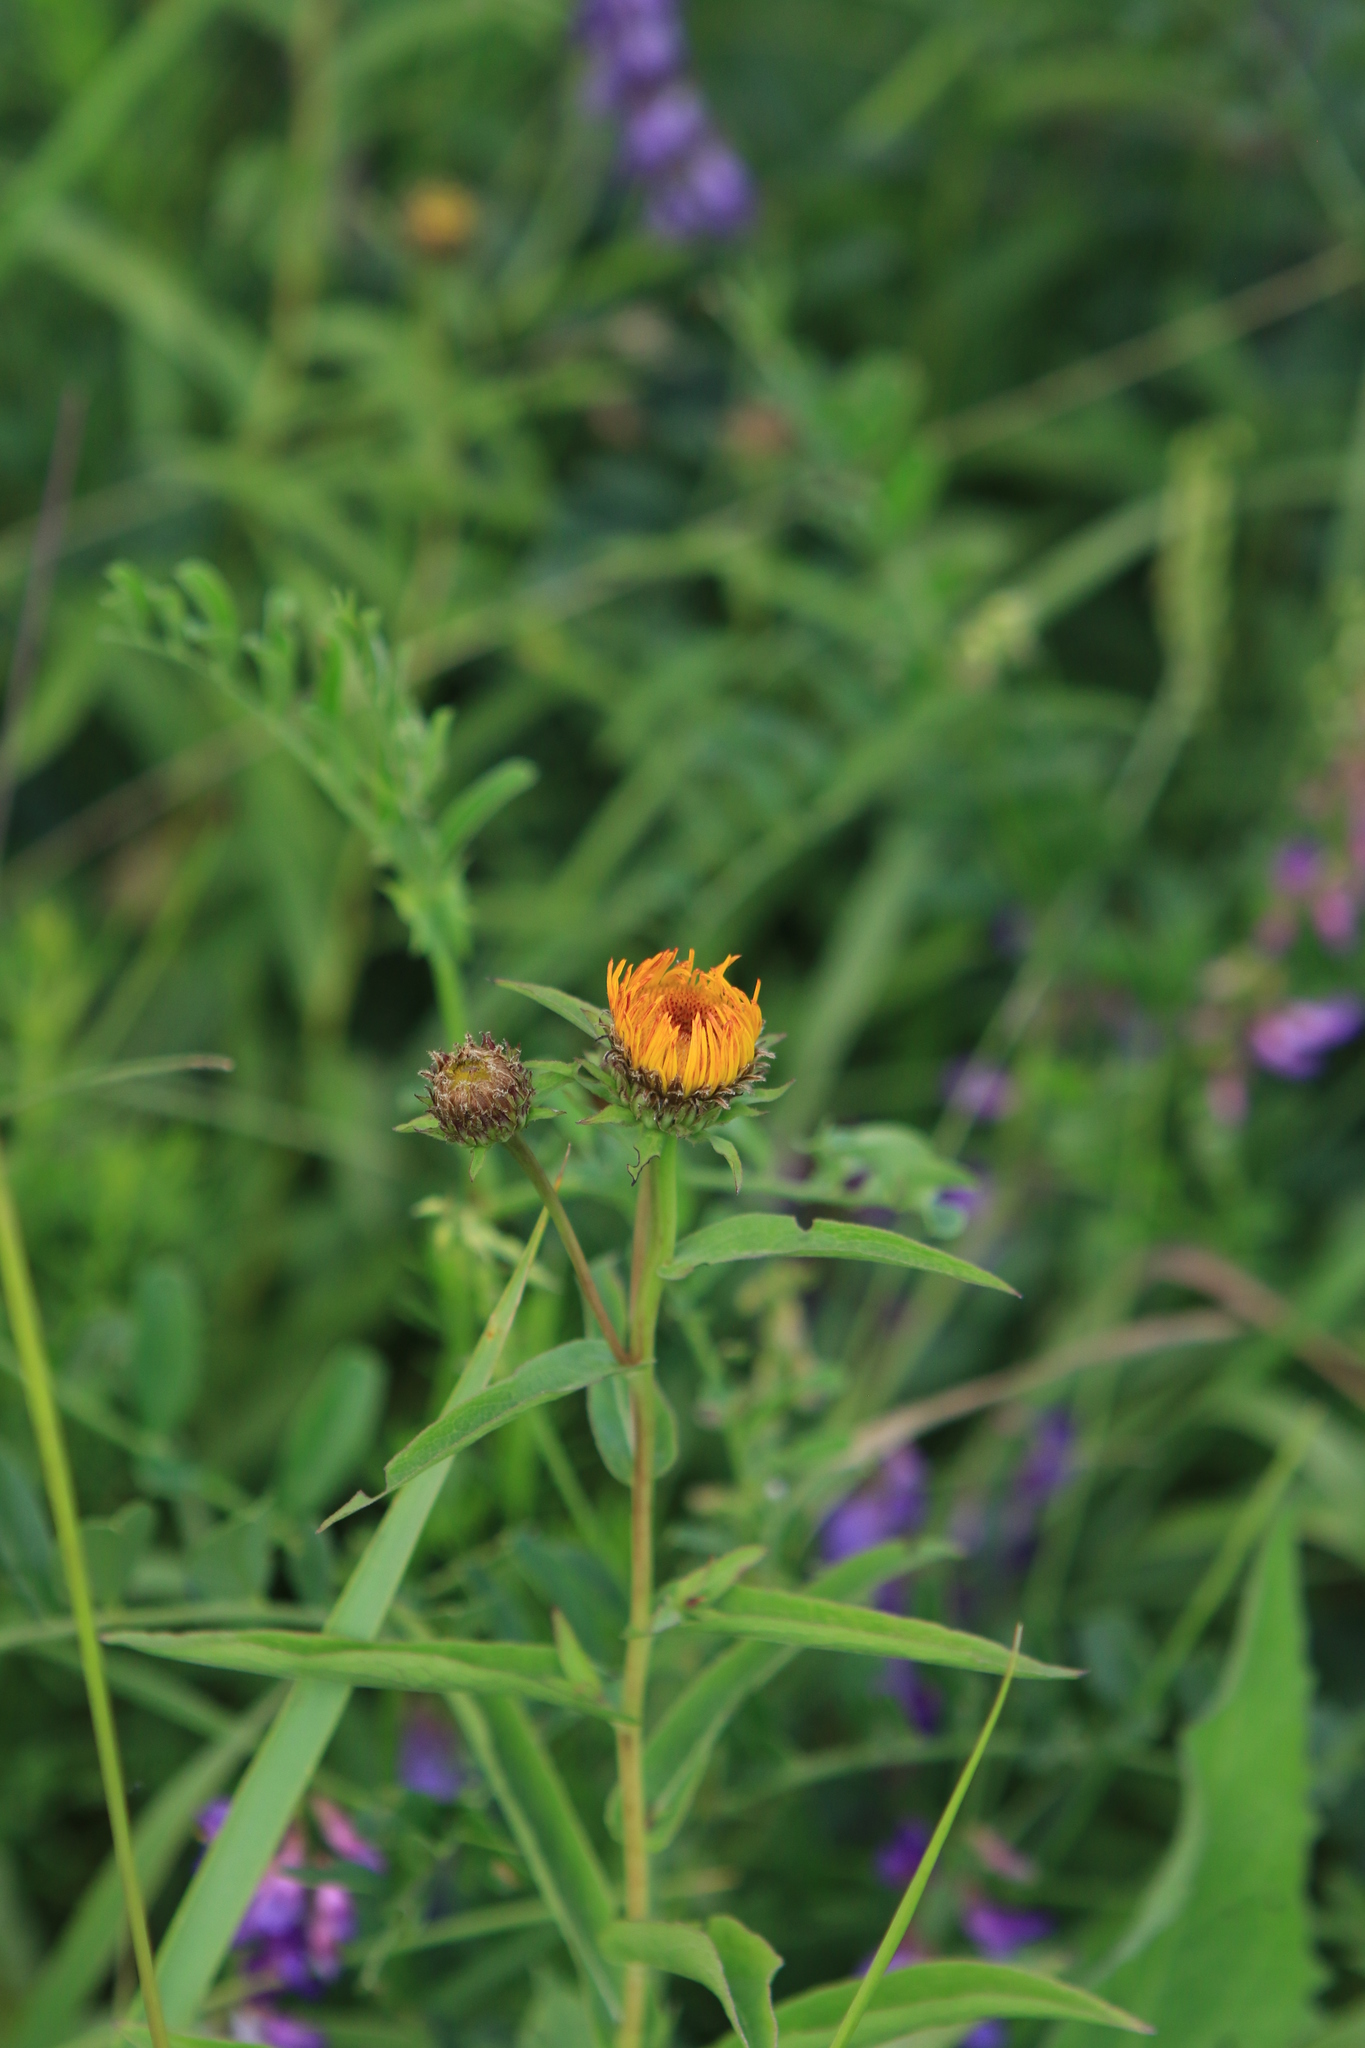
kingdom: Plantae
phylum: Tracheophyta
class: Magnoliopsida
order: Asterales
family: Asteraceae
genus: Pentanema
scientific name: Pentanema salicinum
